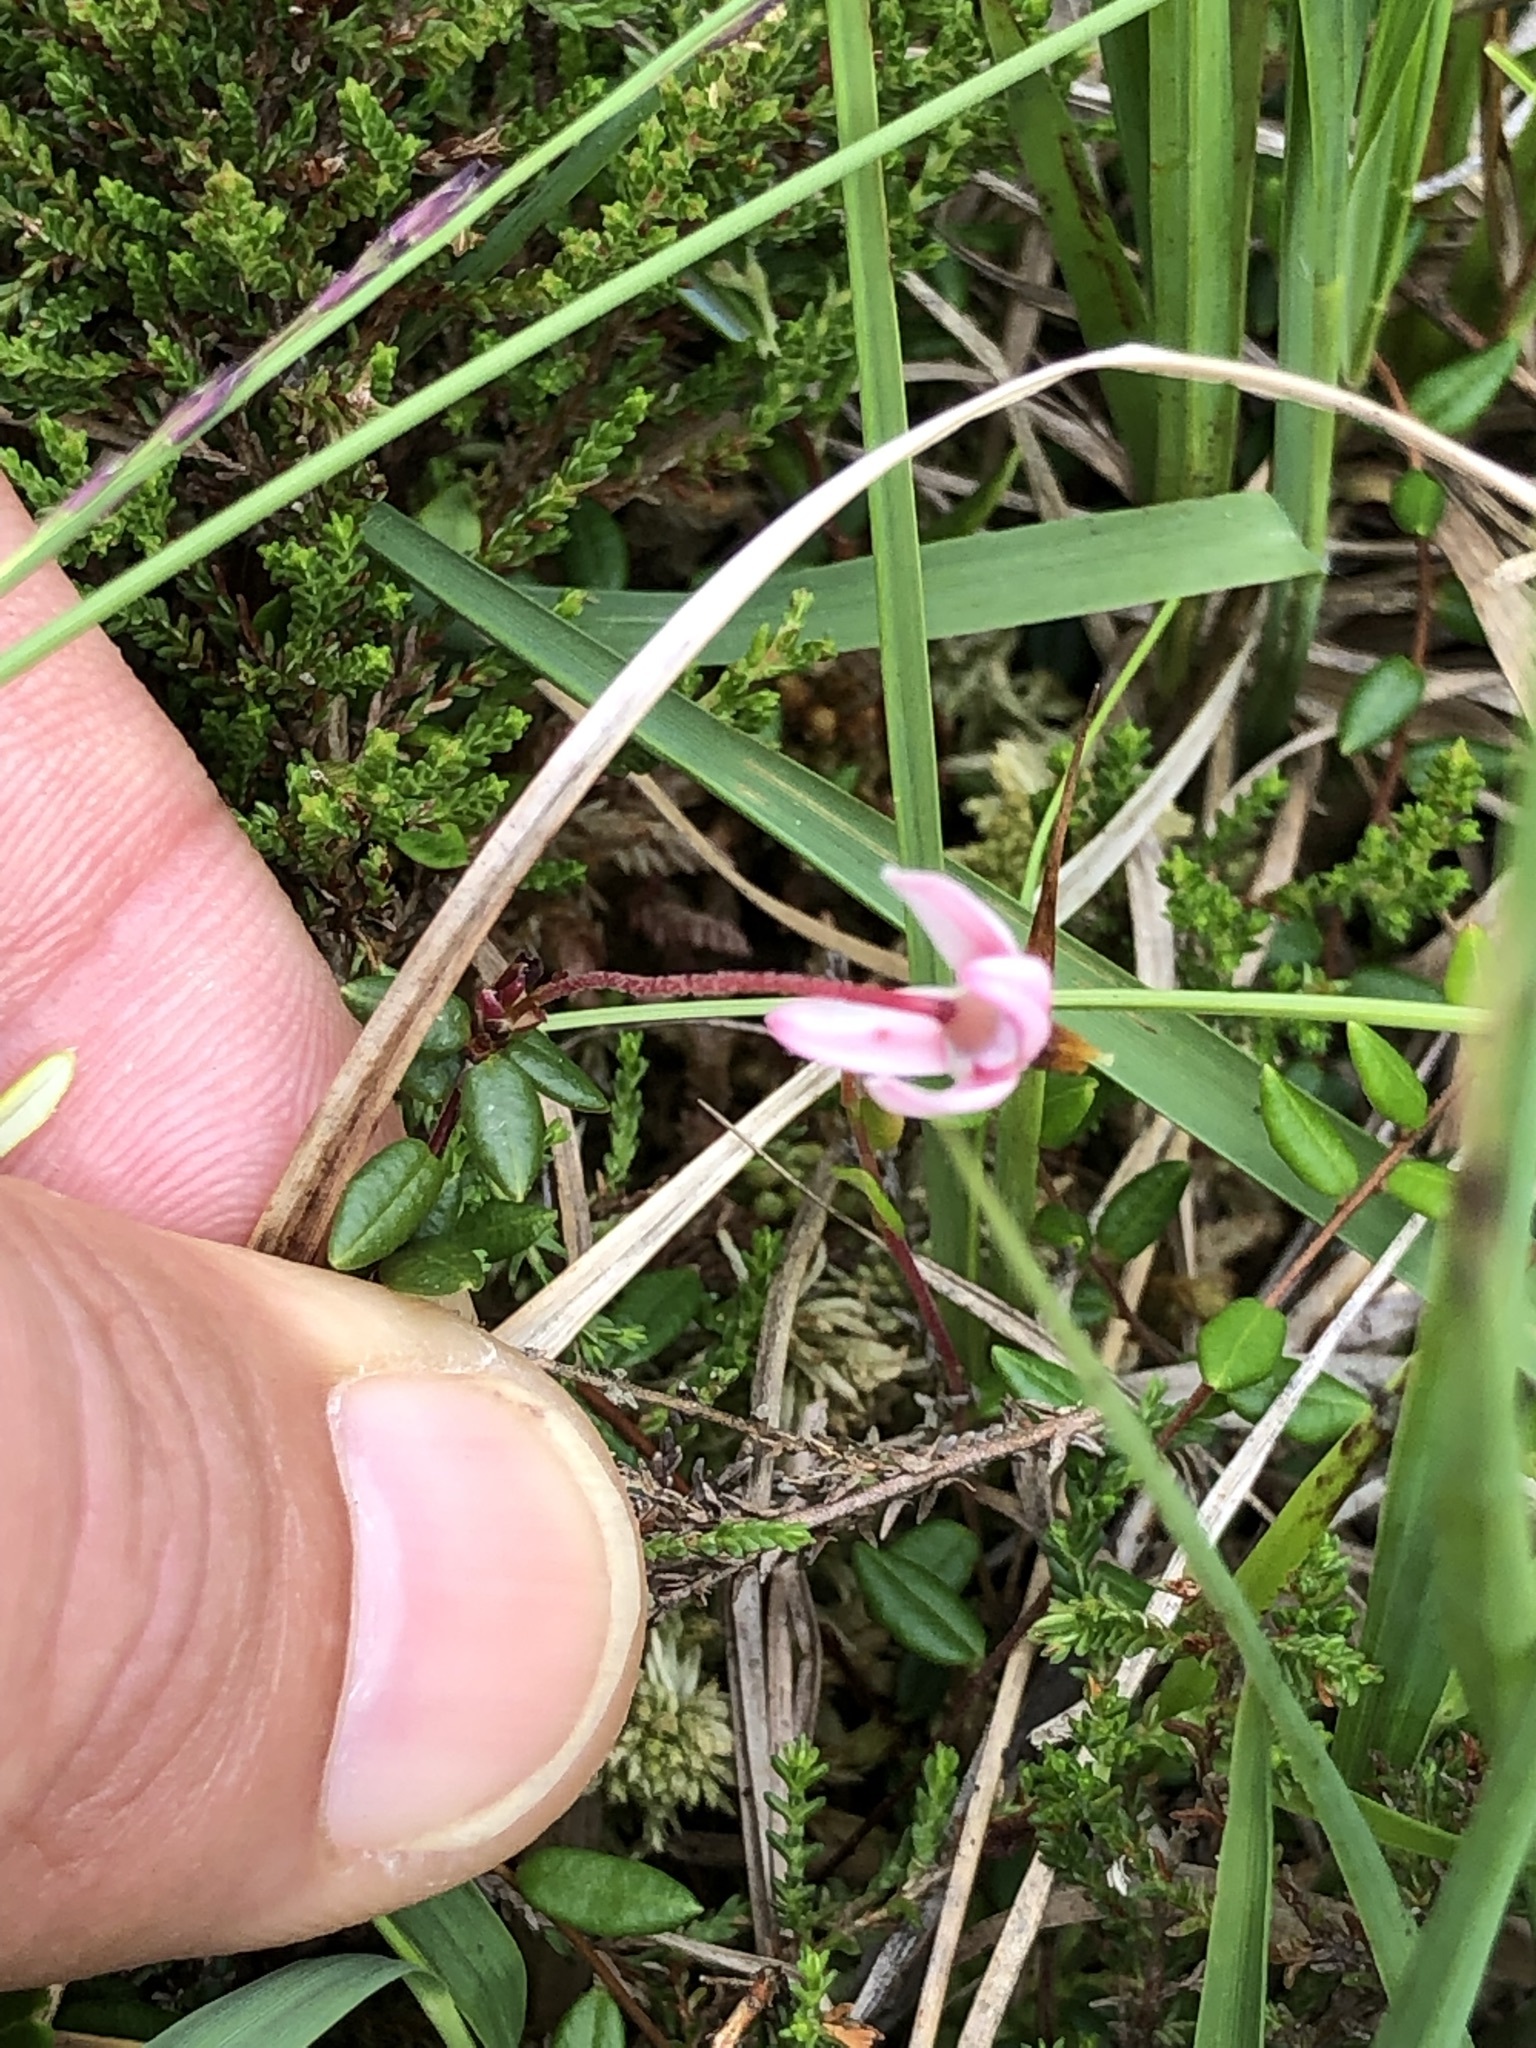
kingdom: Plantae
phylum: Tracheophyta
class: Magnoliopsida
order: Ericales
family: Ericaceae
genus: Vaccinium
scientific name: Vaccinium oxycoccos
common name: Cranberry
